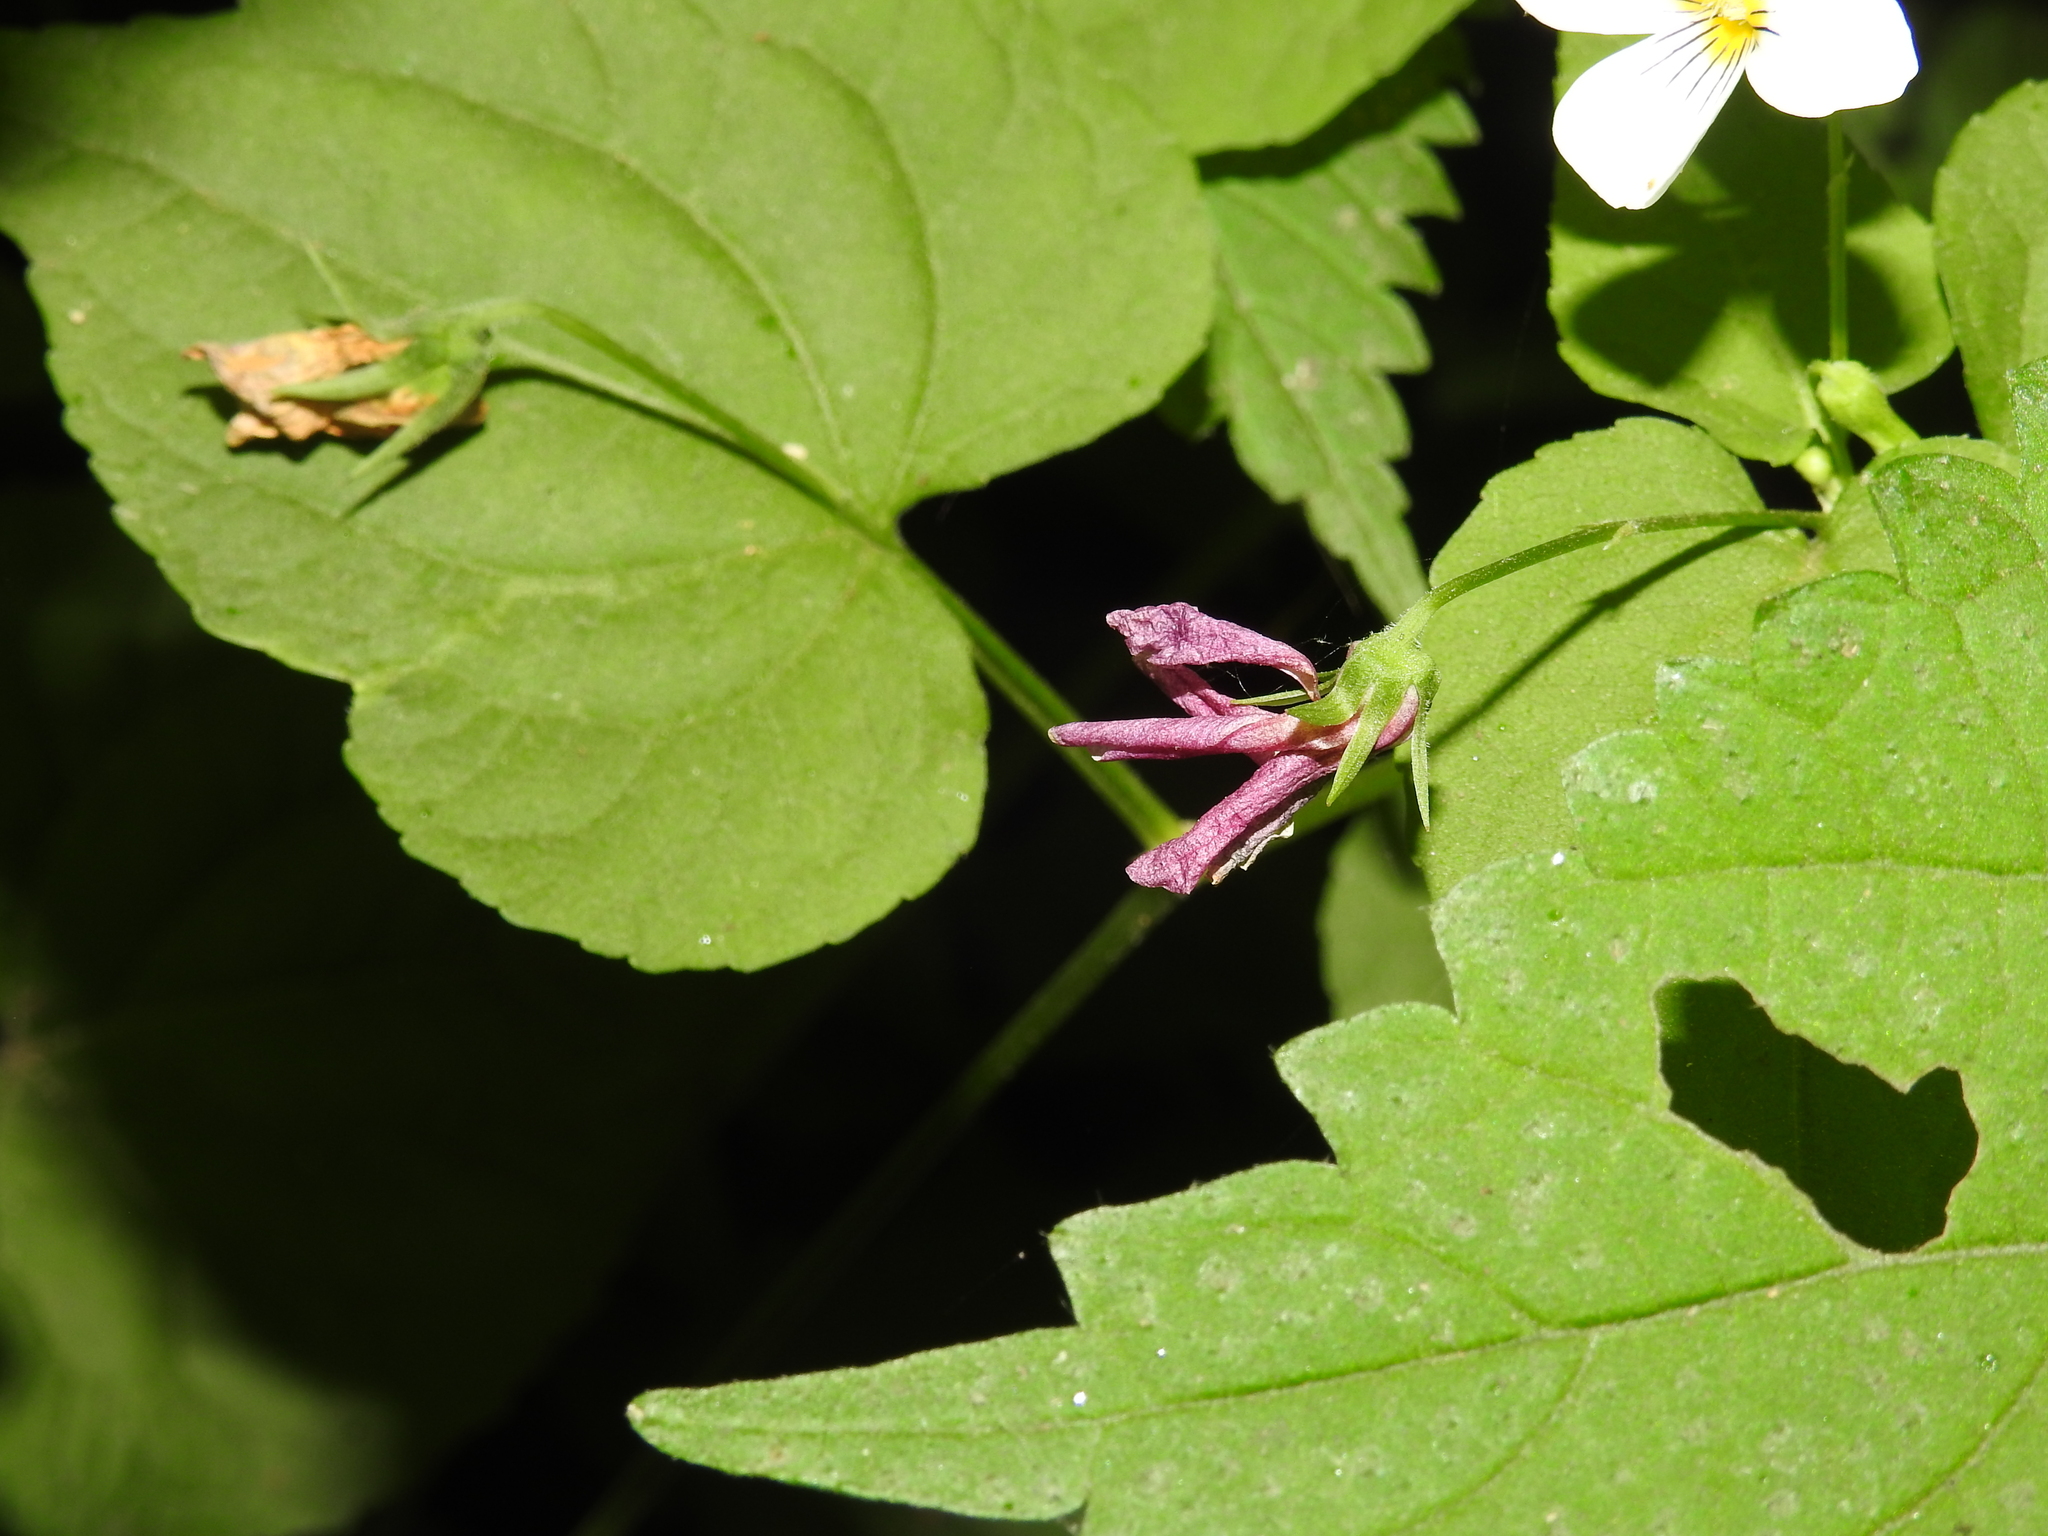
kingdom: Plantae
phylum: Tracheophyta
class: Magnoliopsida
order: Malpighiales
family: Violaceae
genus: Viola
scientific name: Viola canadensis
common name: Canada violet
